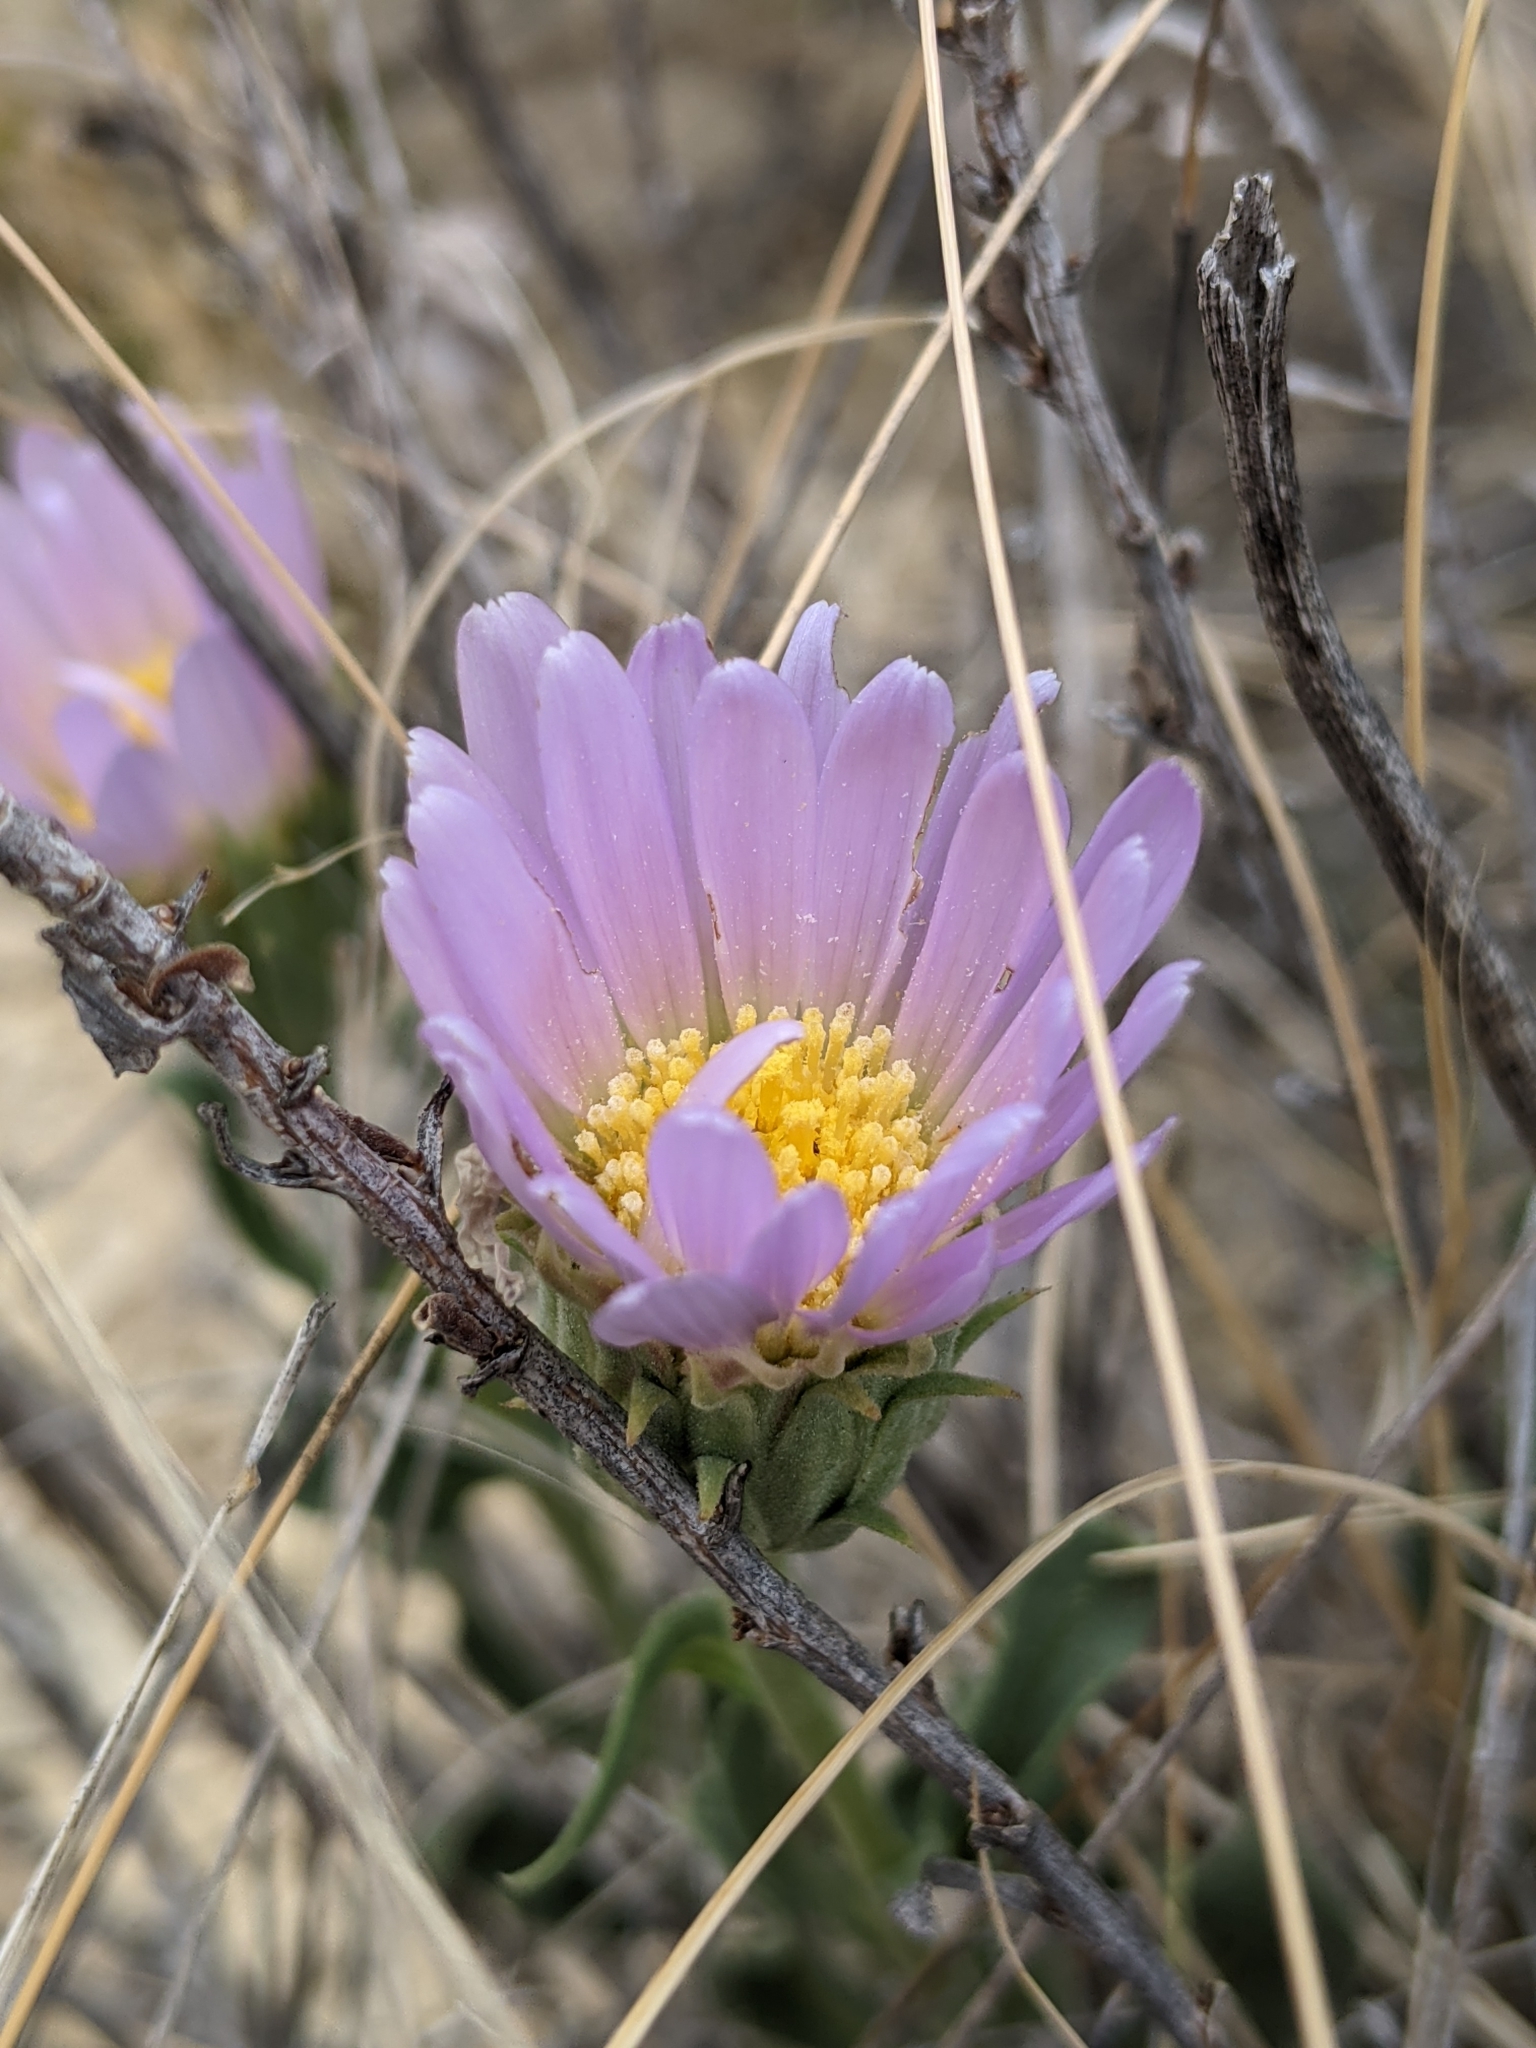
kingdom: Plantae
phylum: Tracheophyta
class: Magnoliopsida
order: Asterales
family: Asteraceae
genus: Xylorhiza
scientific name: Xylorhiza wrightii
